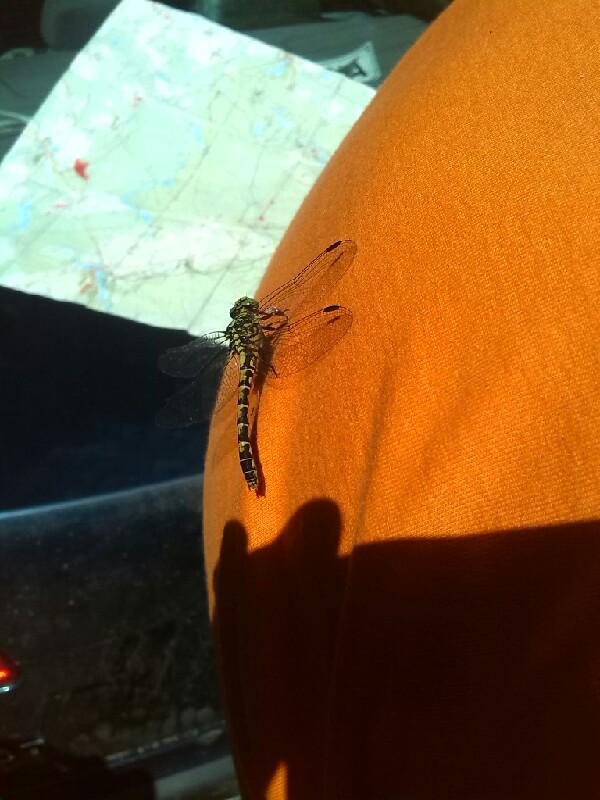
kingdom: Animalia
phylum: Arthropoda
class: Insecta
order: Odonata
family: Gomphidae
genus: Onychogomphus
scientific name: Onychogomphus forcipatus
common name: Small pincertail
